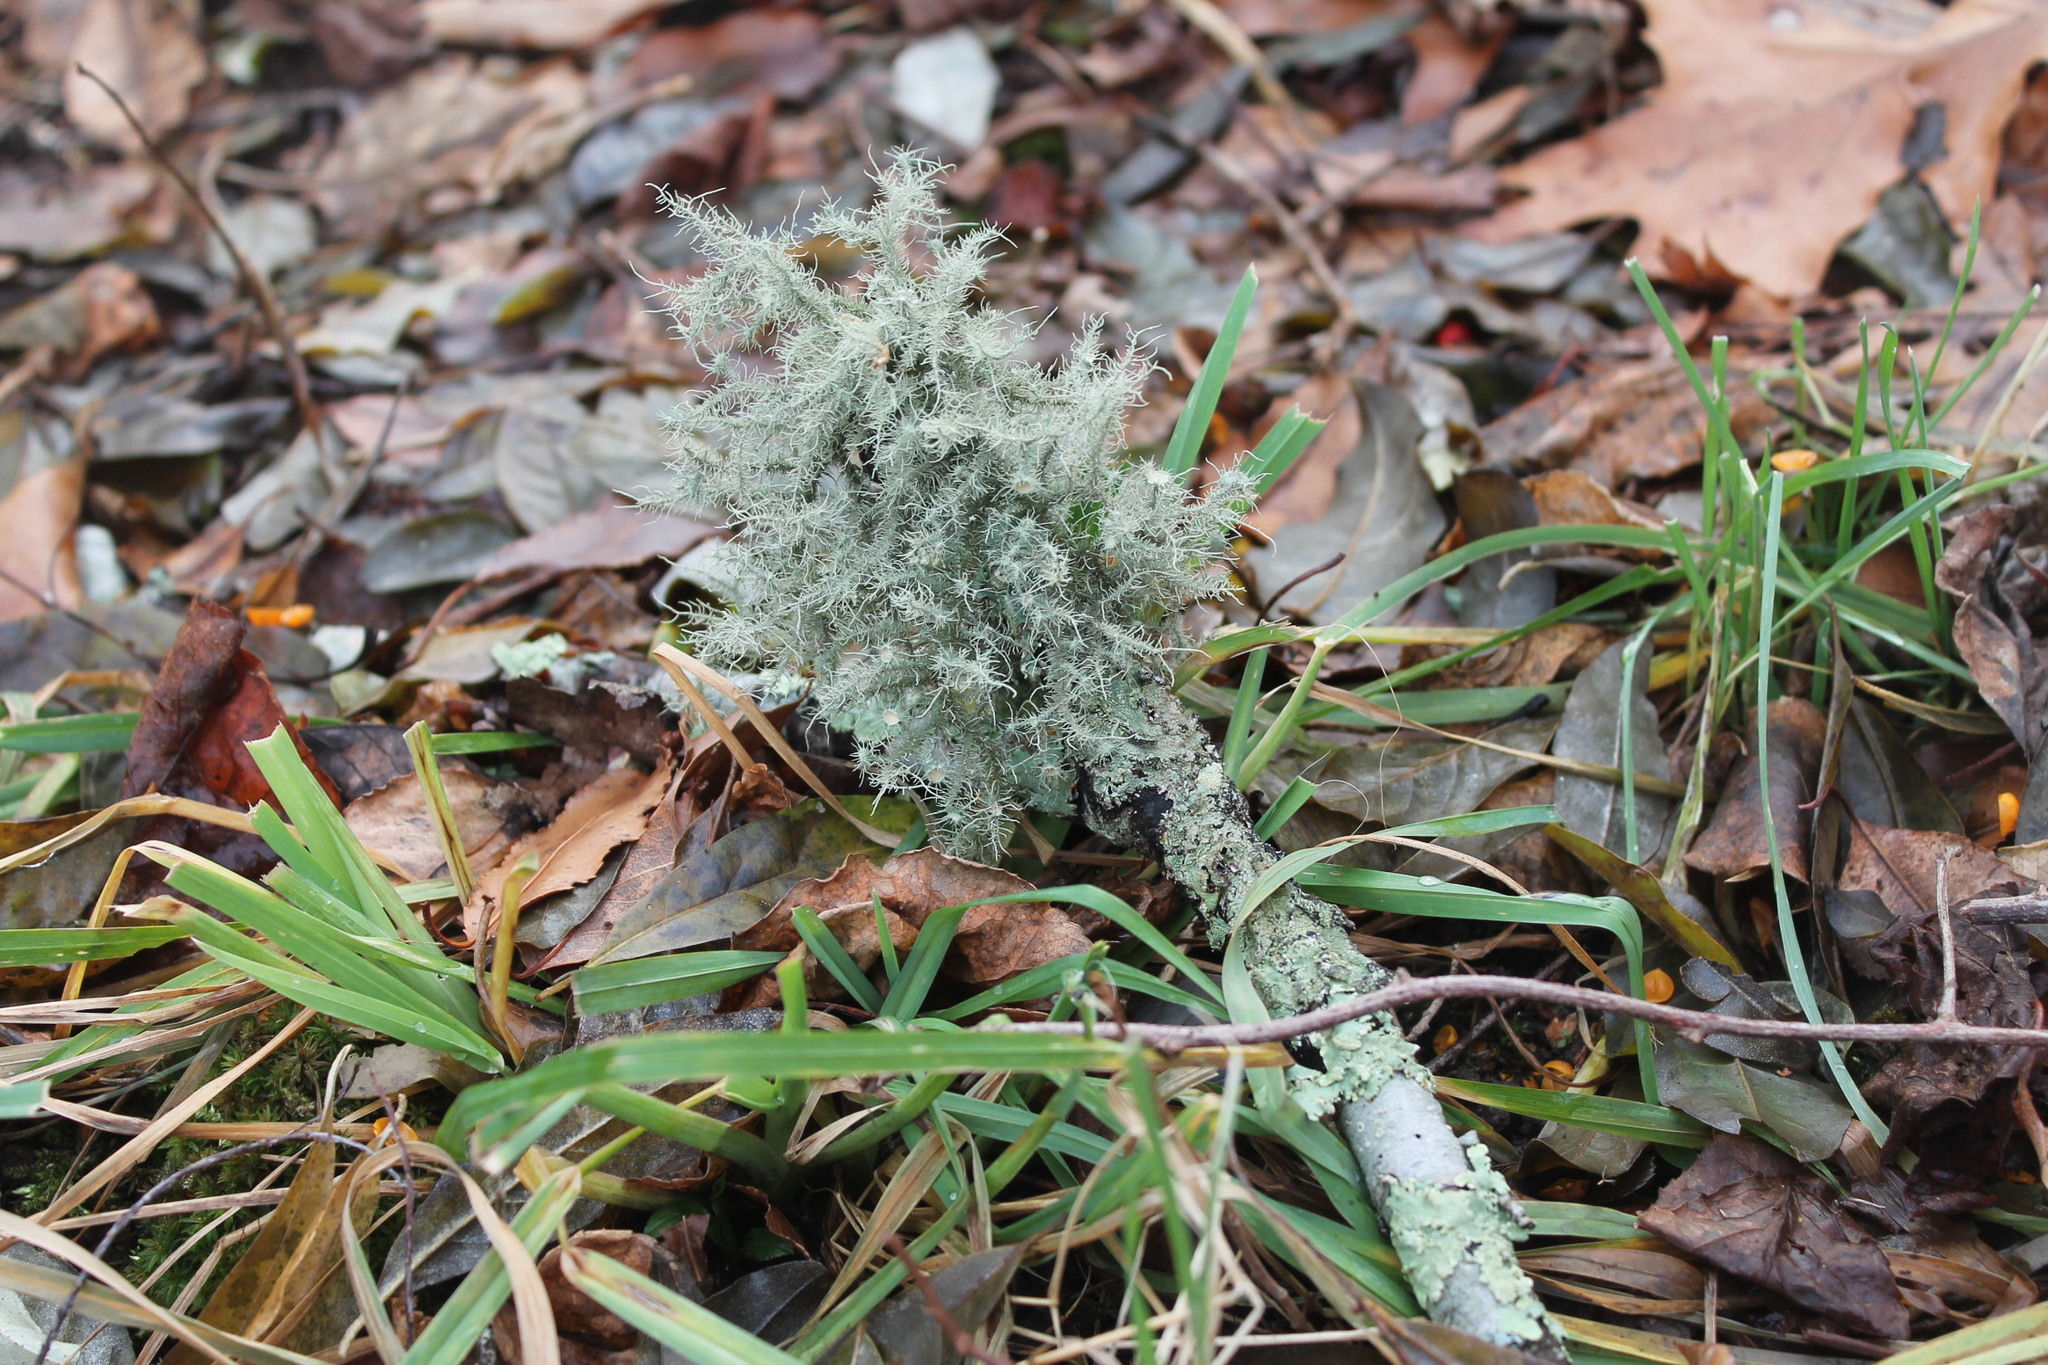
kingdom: Fungi
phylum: Ascomycota
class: Lecanoromycetes
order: Lecanorales
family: Parmeliaceae
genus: Usnea
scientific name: Usnea strigosa
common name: Bushy beard lichen
